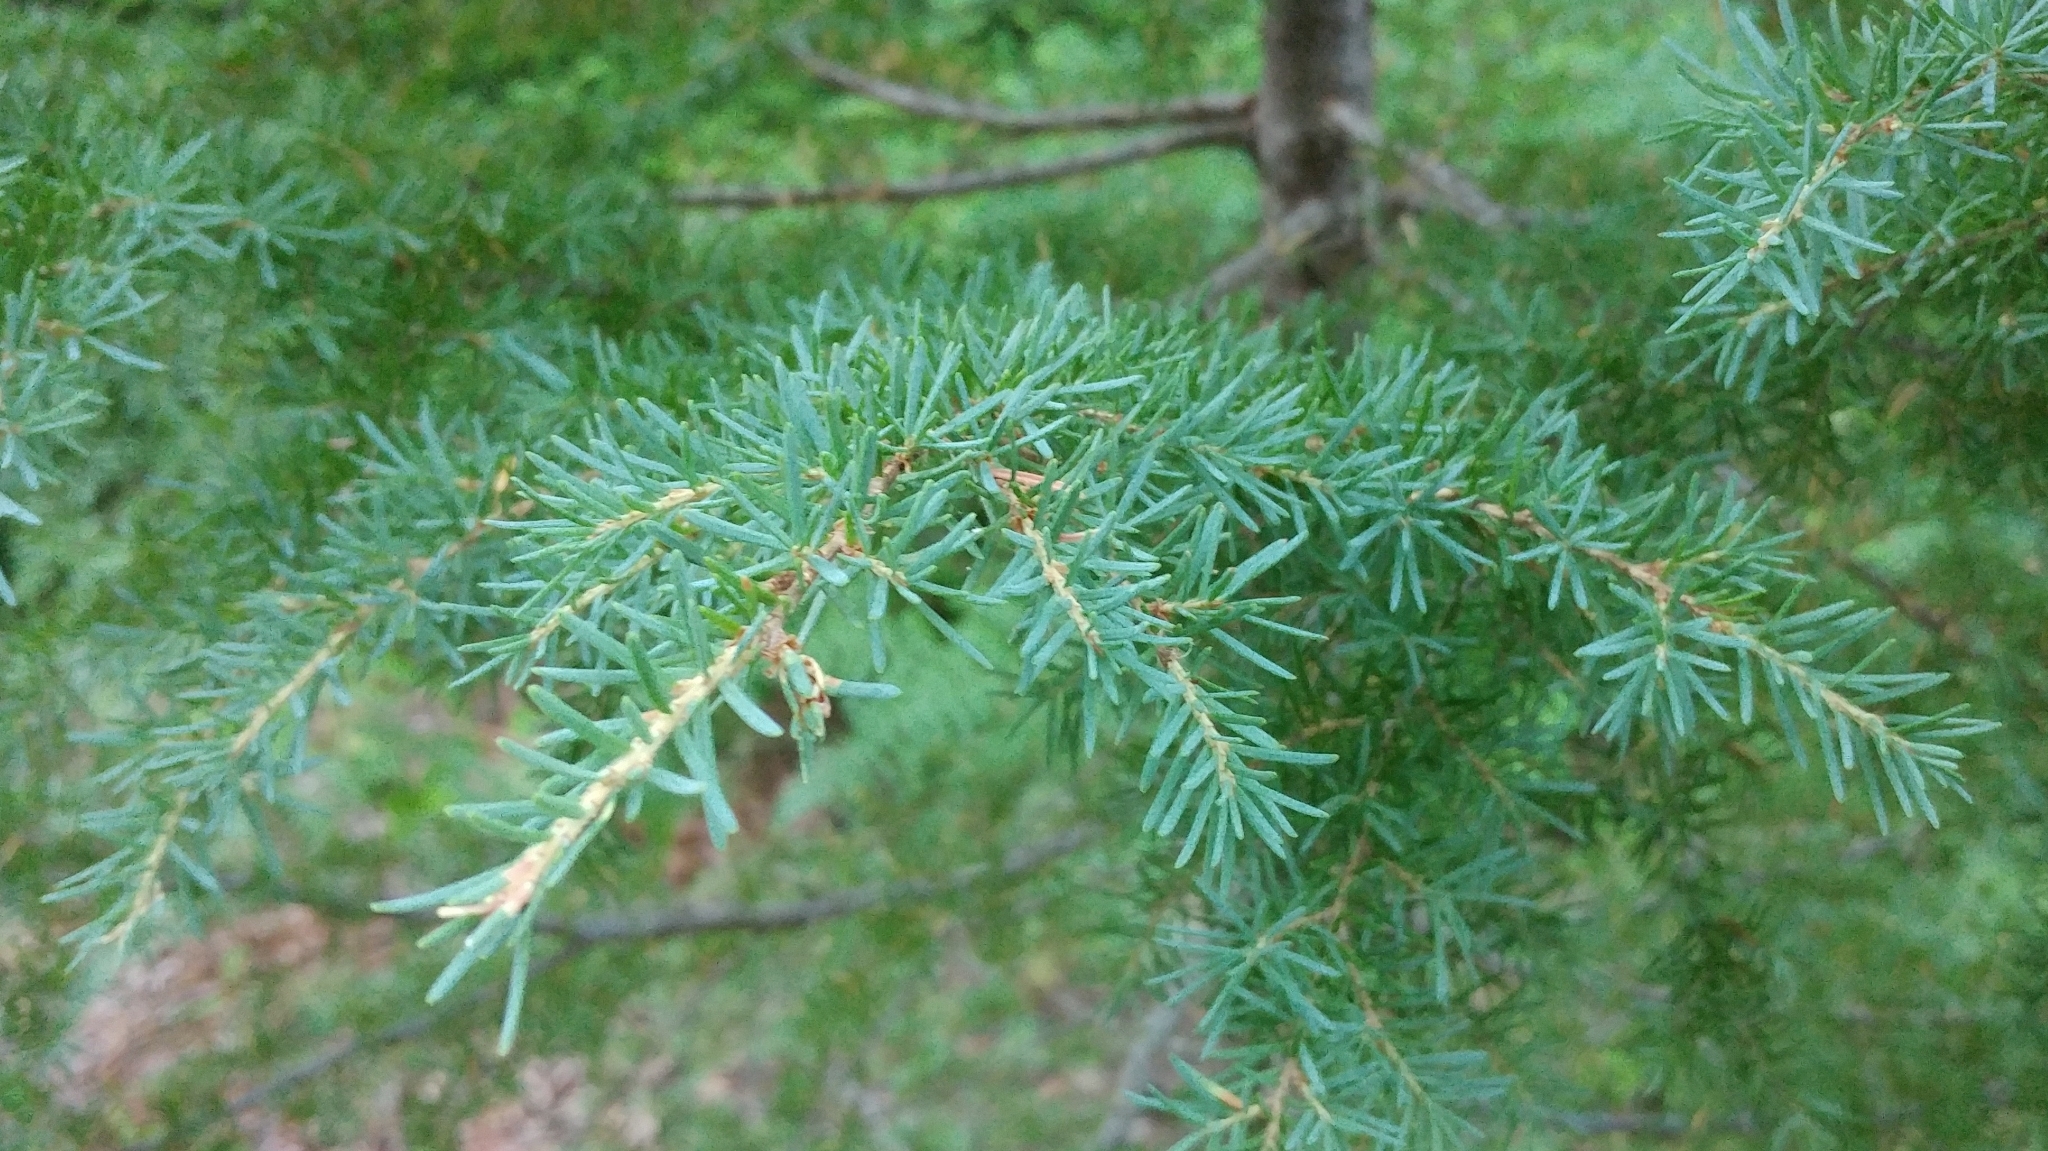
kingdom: Plantae
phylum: Tracheophyta
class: Pinopsida
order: Pinales
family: Pinaceae
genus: Tsuga
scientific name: Tsuga mertensiana
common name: Mountain hemlock
